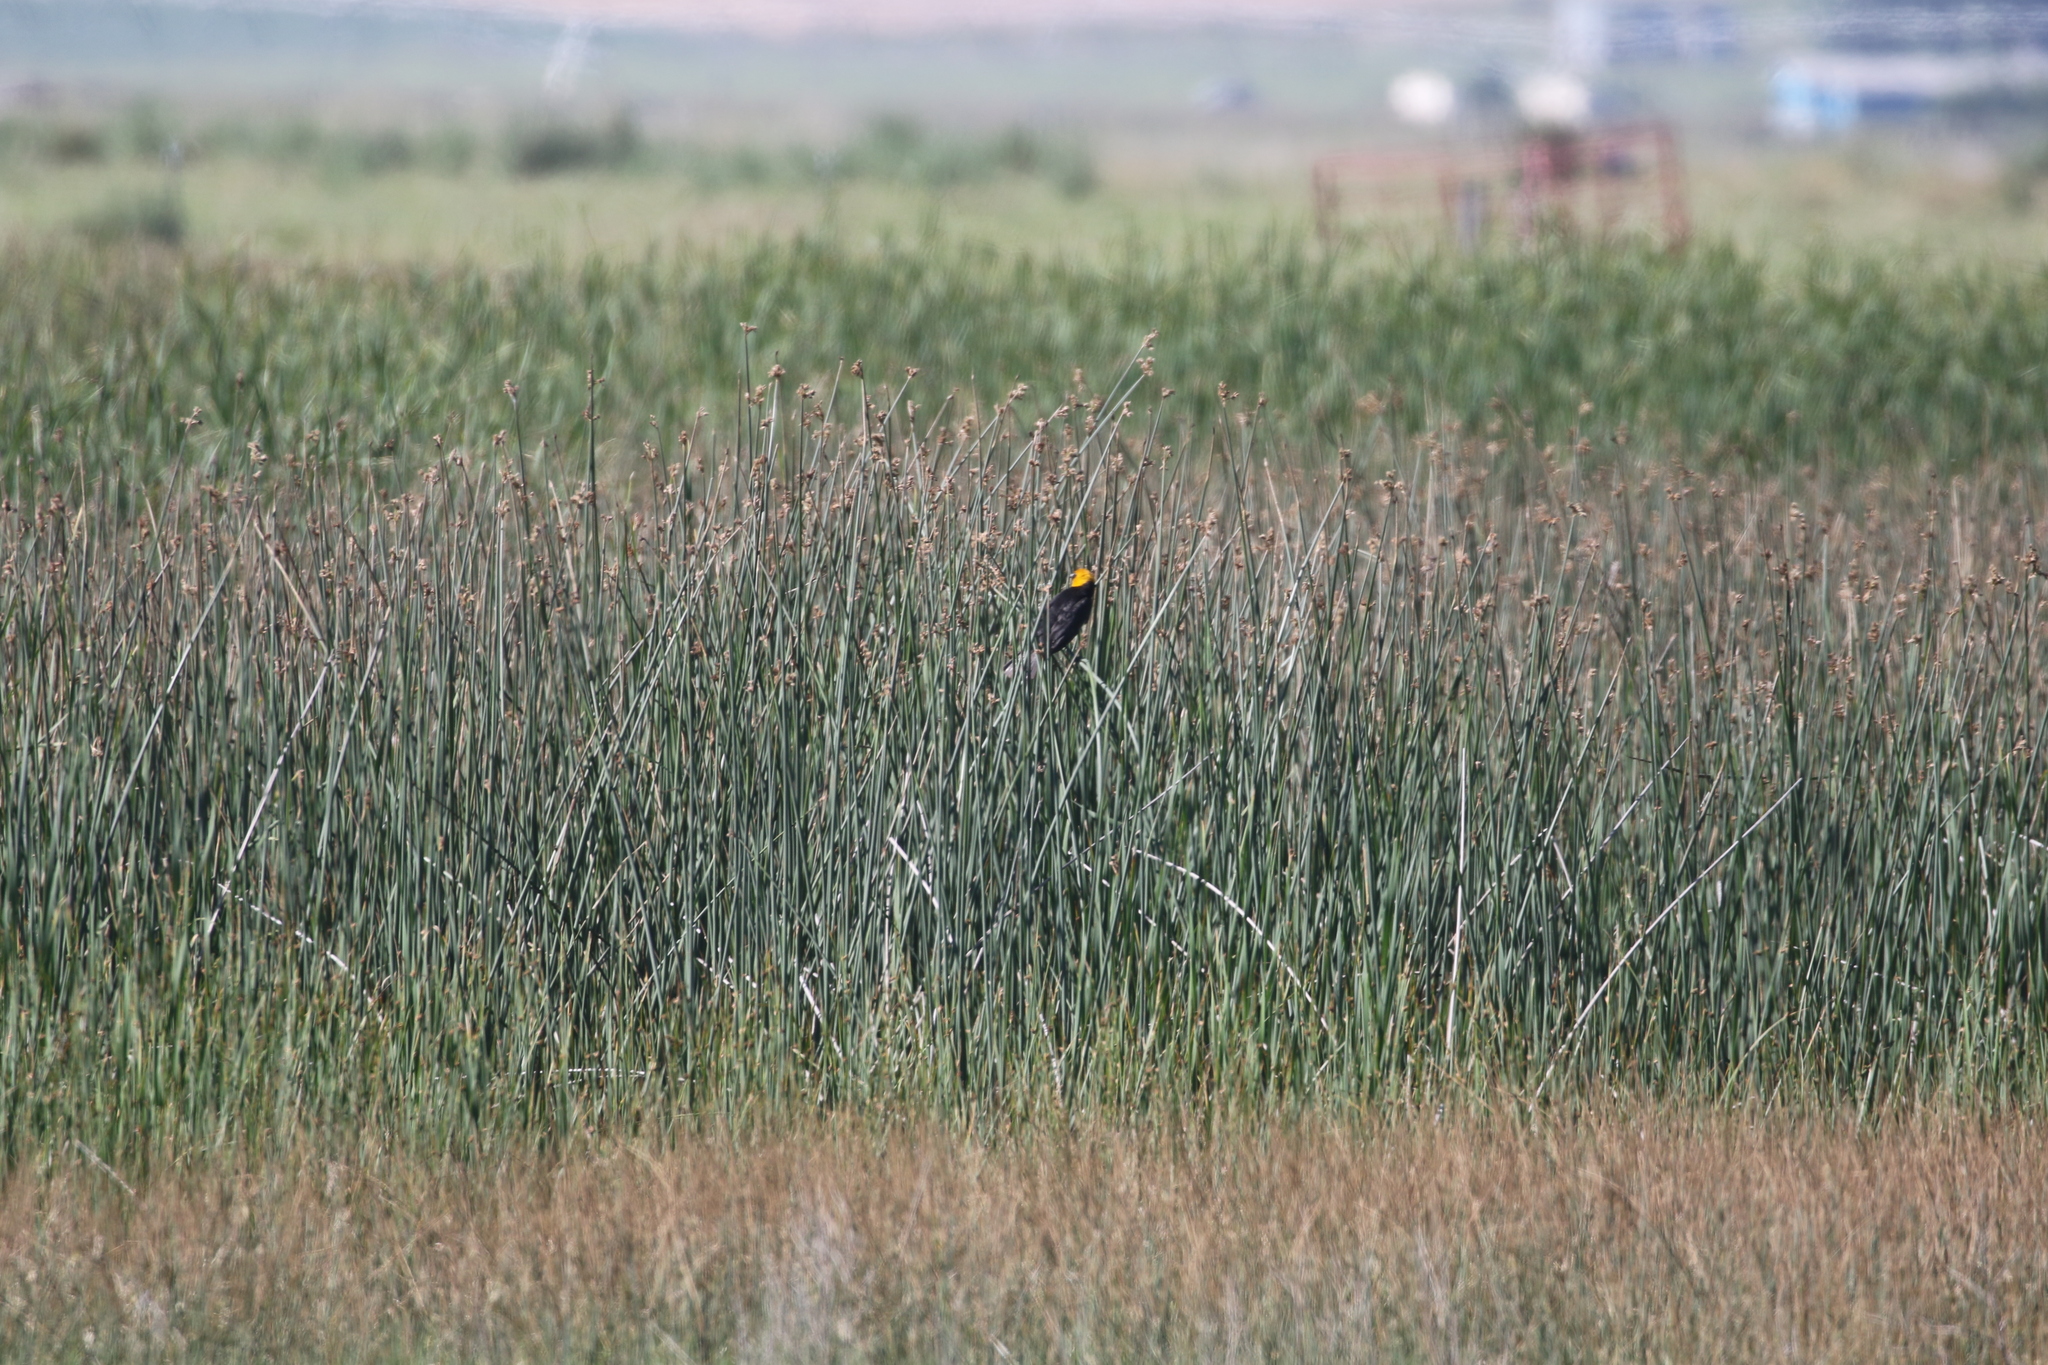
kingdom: Animalia
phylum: Chordata
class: Aves
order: Passeriformes
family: Icteridae
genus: Xanthocephalus
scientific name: Xanthocephalus xanthocephalus
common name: Yellow-headed blackbird
